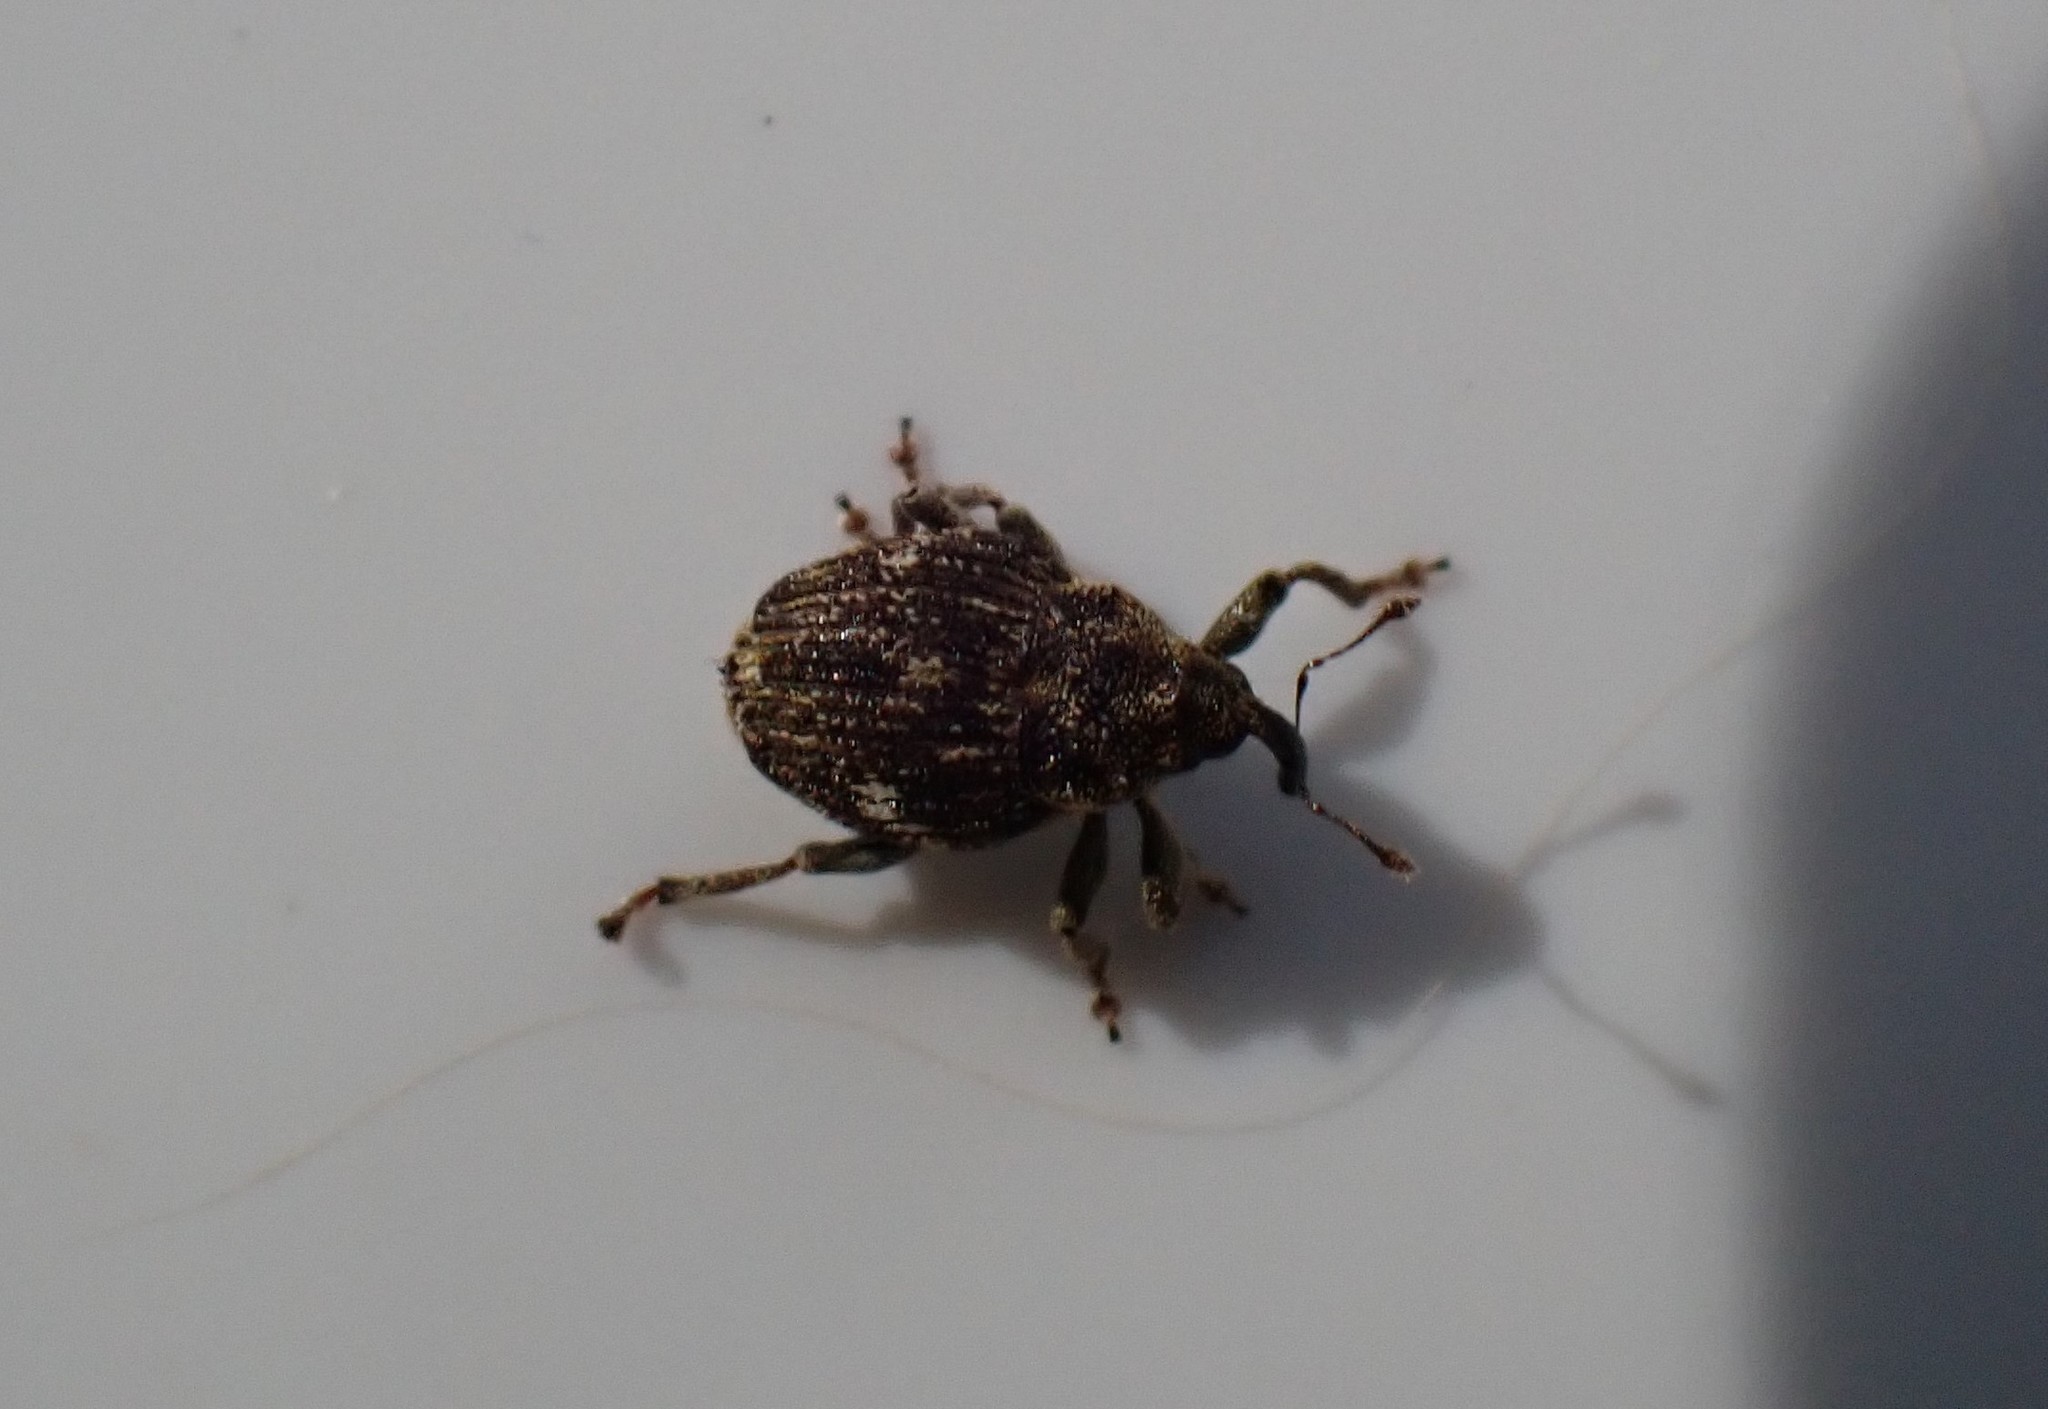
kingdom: Animalia
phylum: Arthropoda
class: Insecta
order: Coleoptera
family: Curculionidae
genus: Nedyus
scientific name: Nedyus quadrimaculatus
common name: Small nettle weevil
